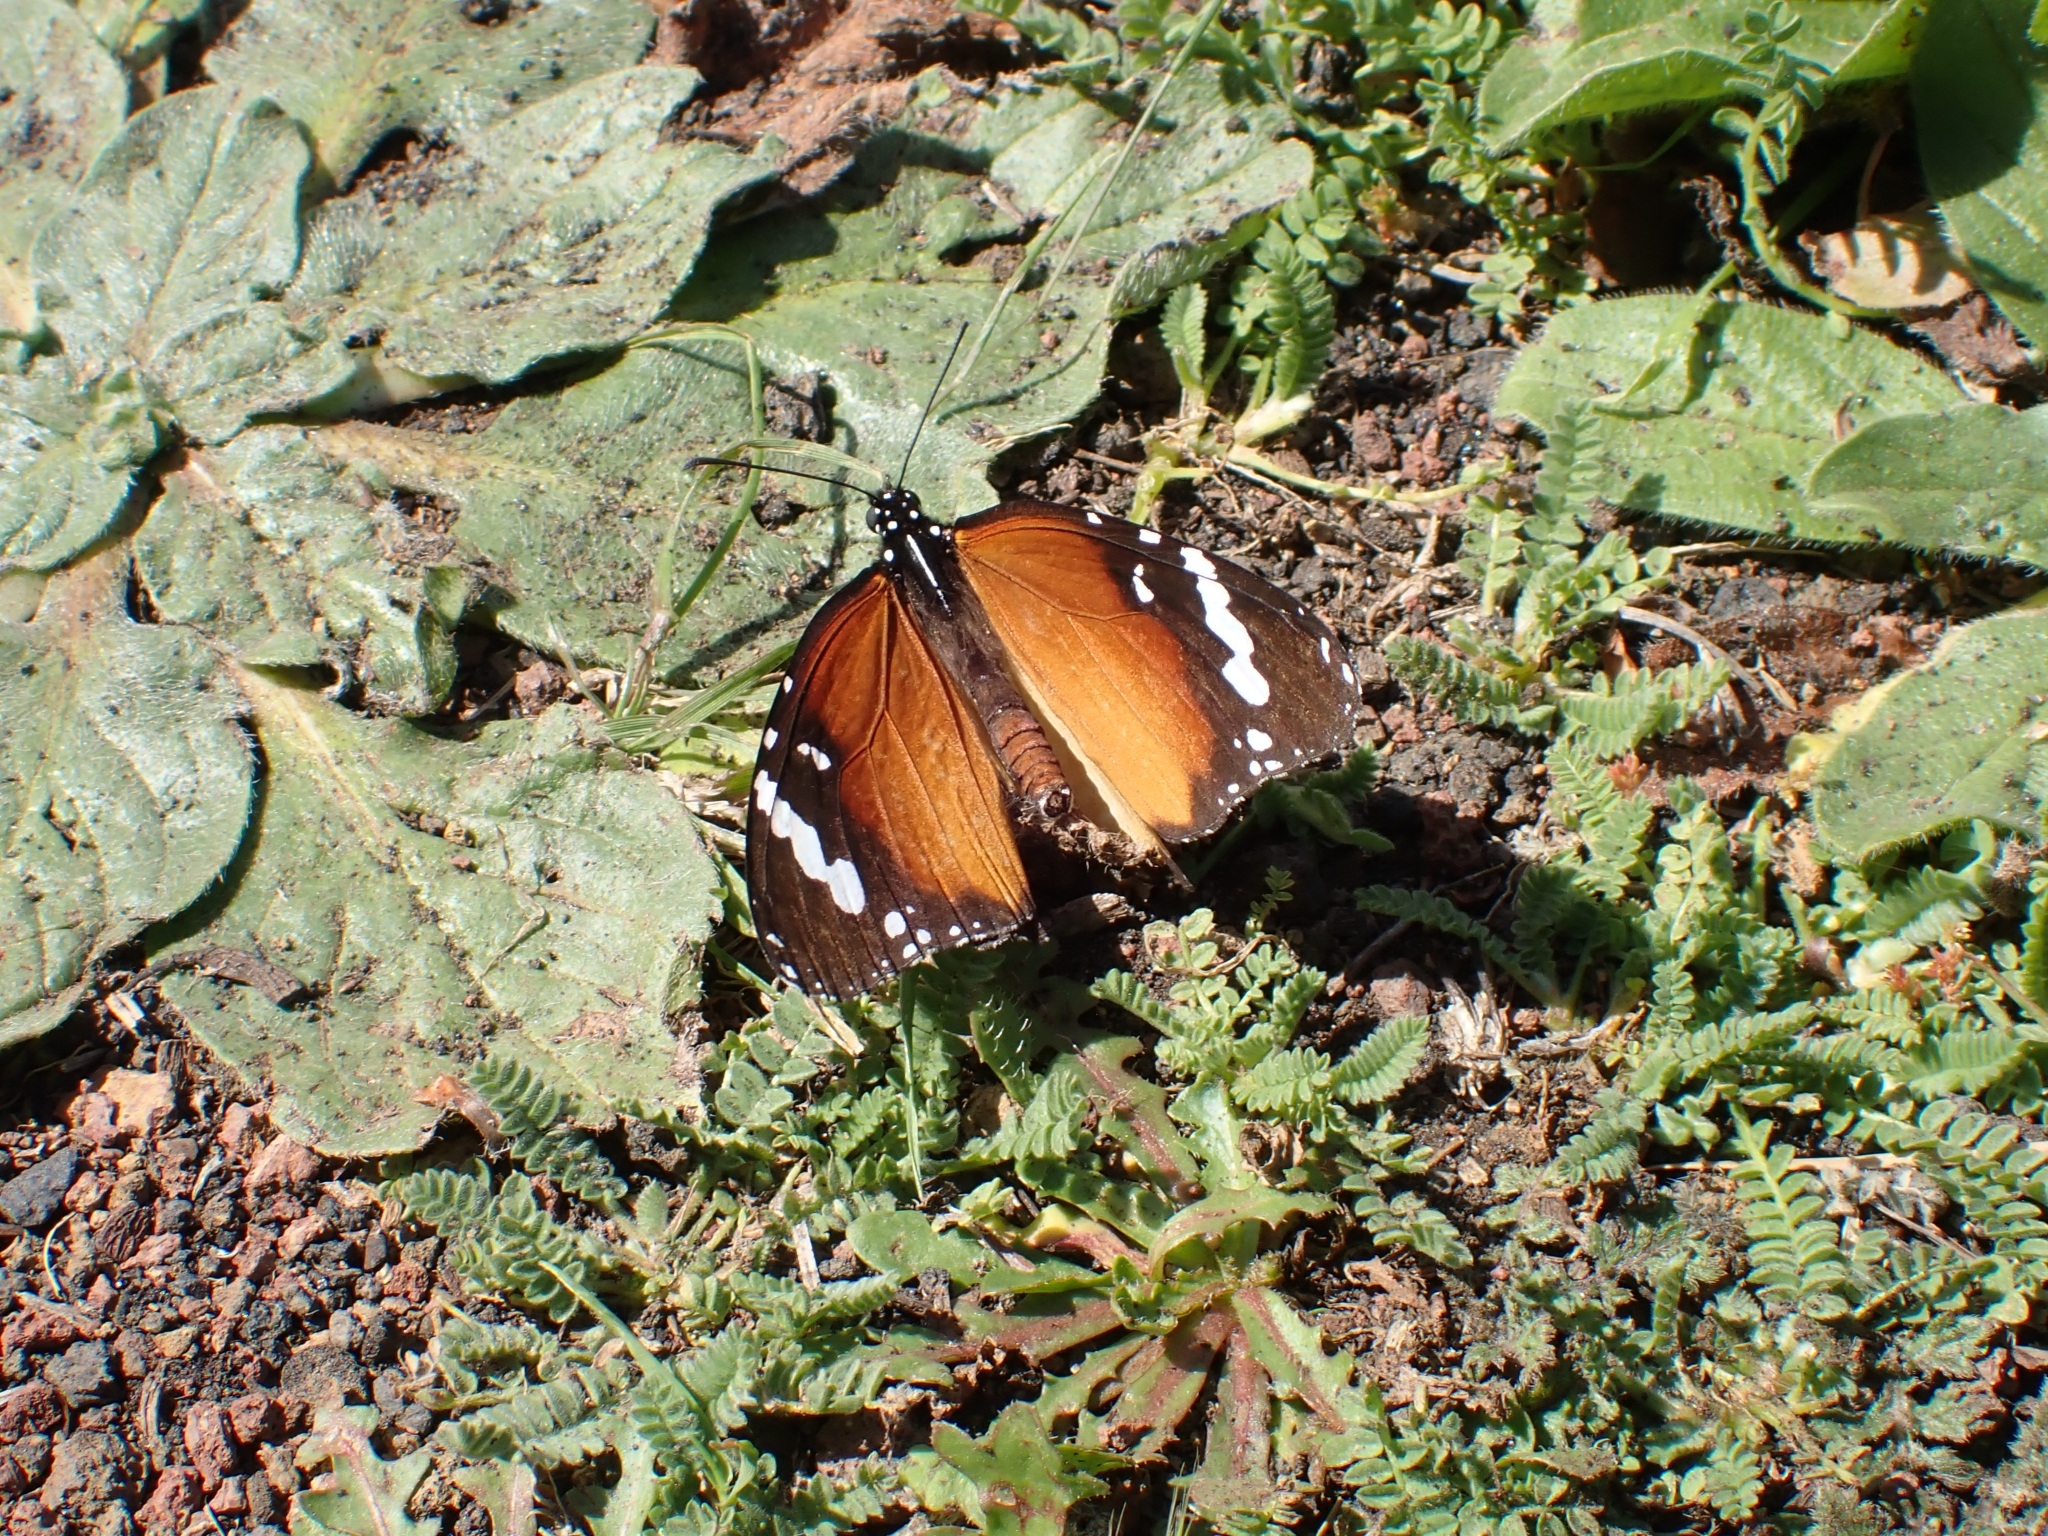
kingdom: Animalia
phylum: Arthropoda
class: Insecta
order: Lepidoptera
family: Nymphalidae
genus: Danaus
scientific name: Danaus chrysippus
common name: Plain tiger
